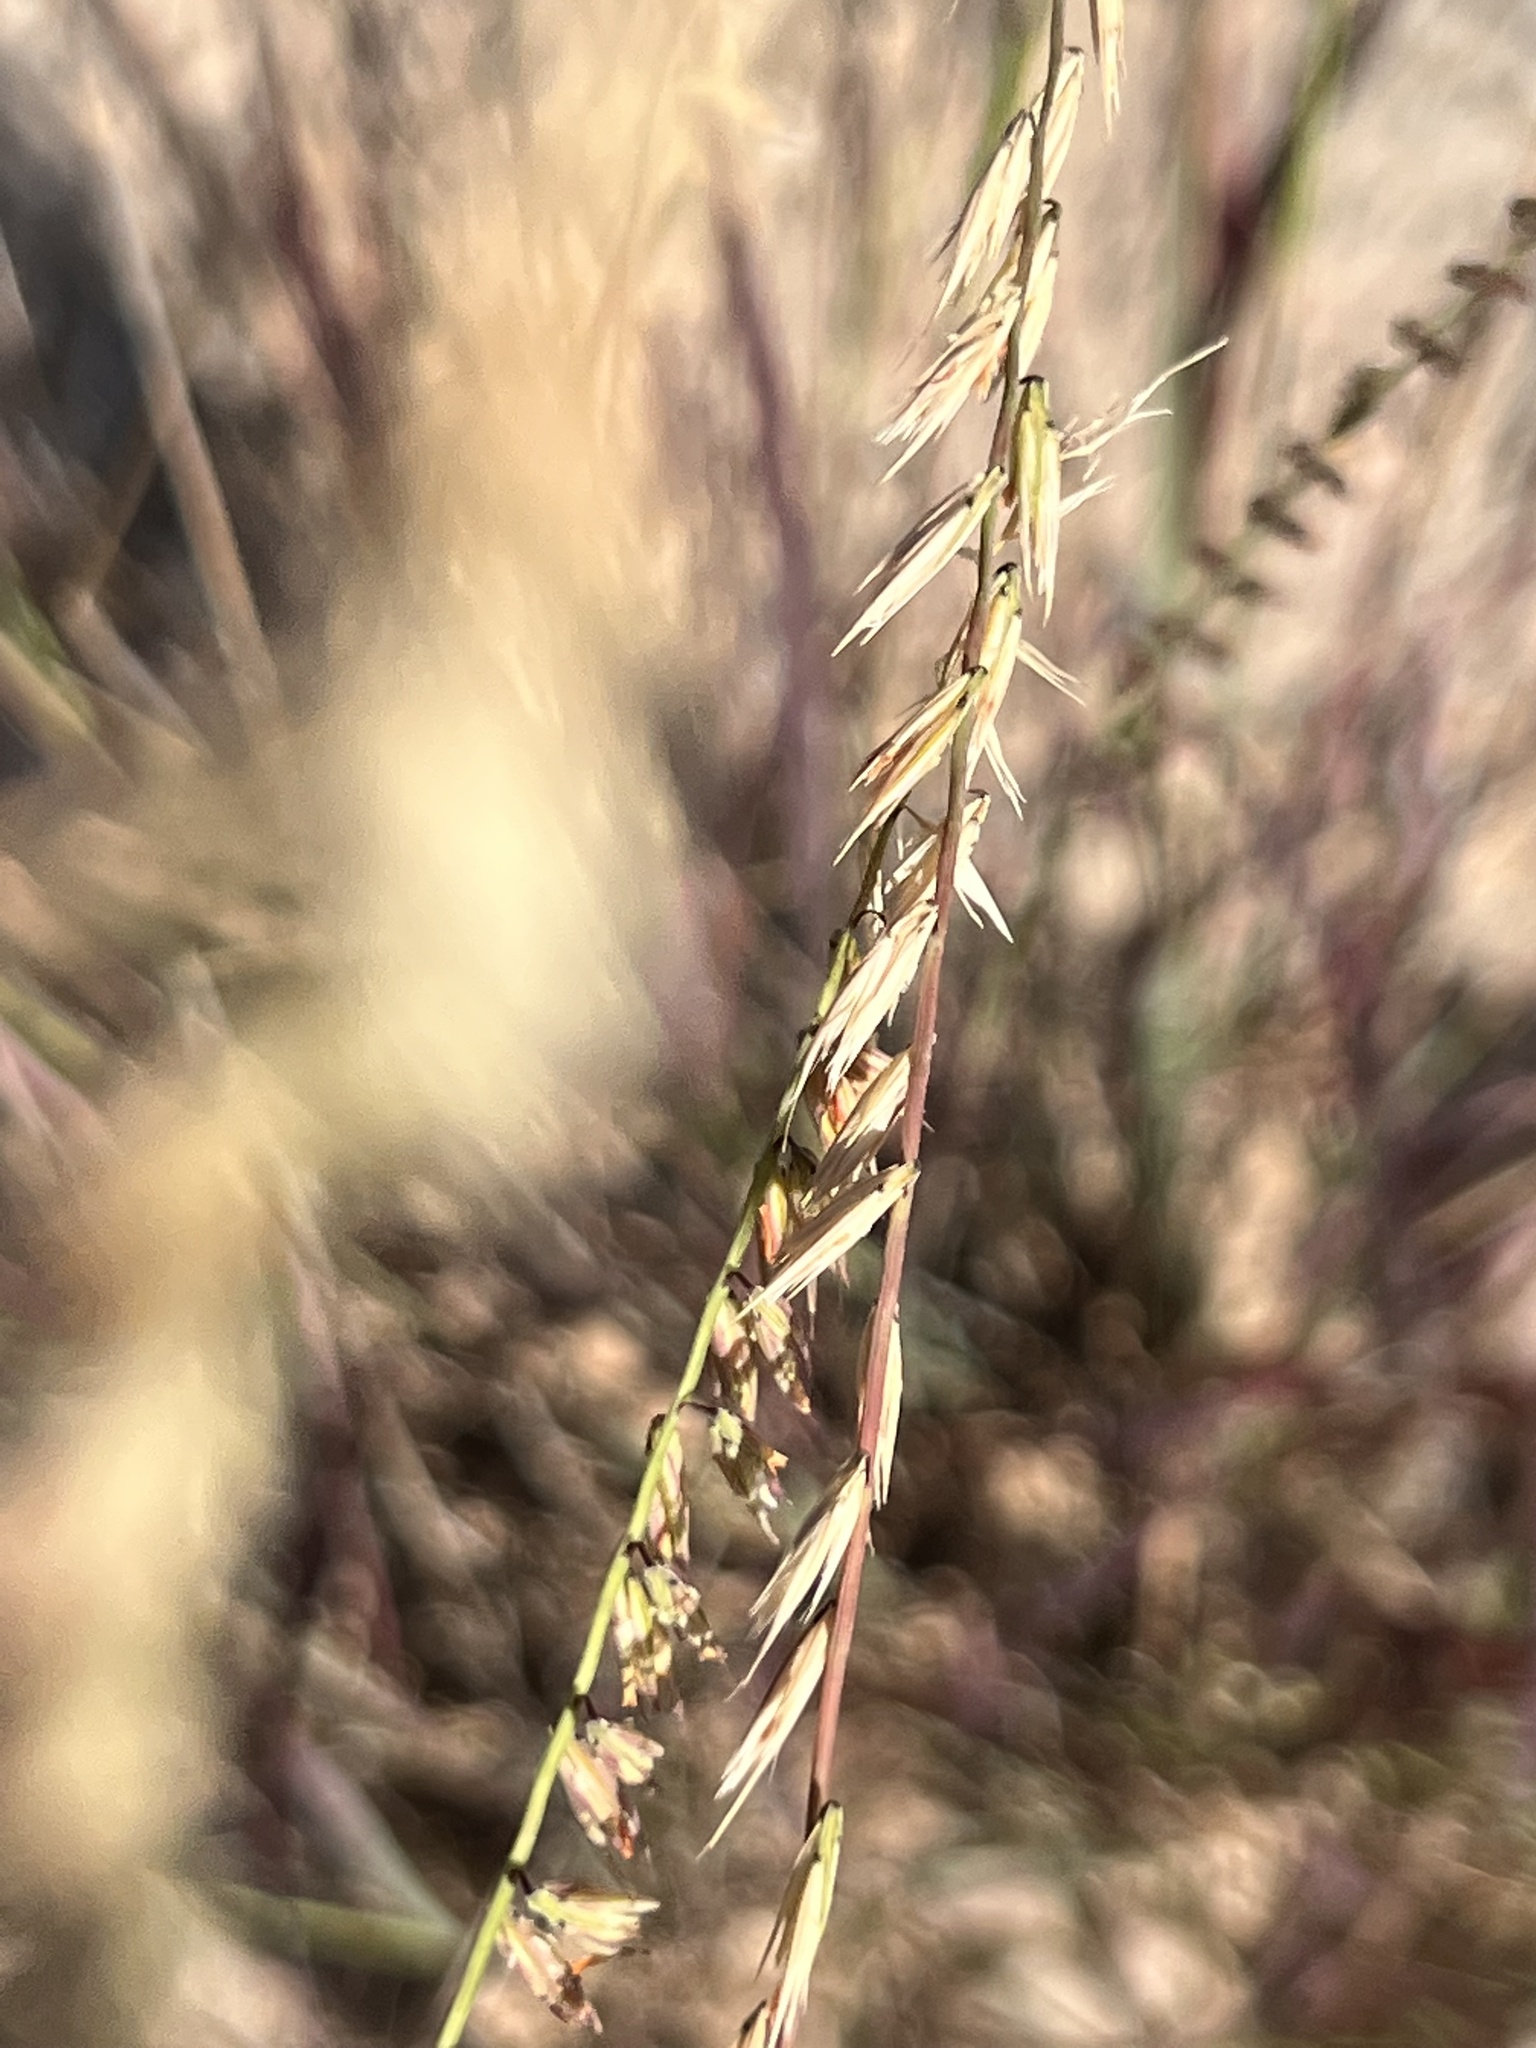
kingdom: Plantae
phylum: Tracheophyta
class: Liliopsida
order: Poales
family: Poaceae
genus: Bouteloua
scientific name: Bouteloua curtipendula
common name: Side-oats grama
